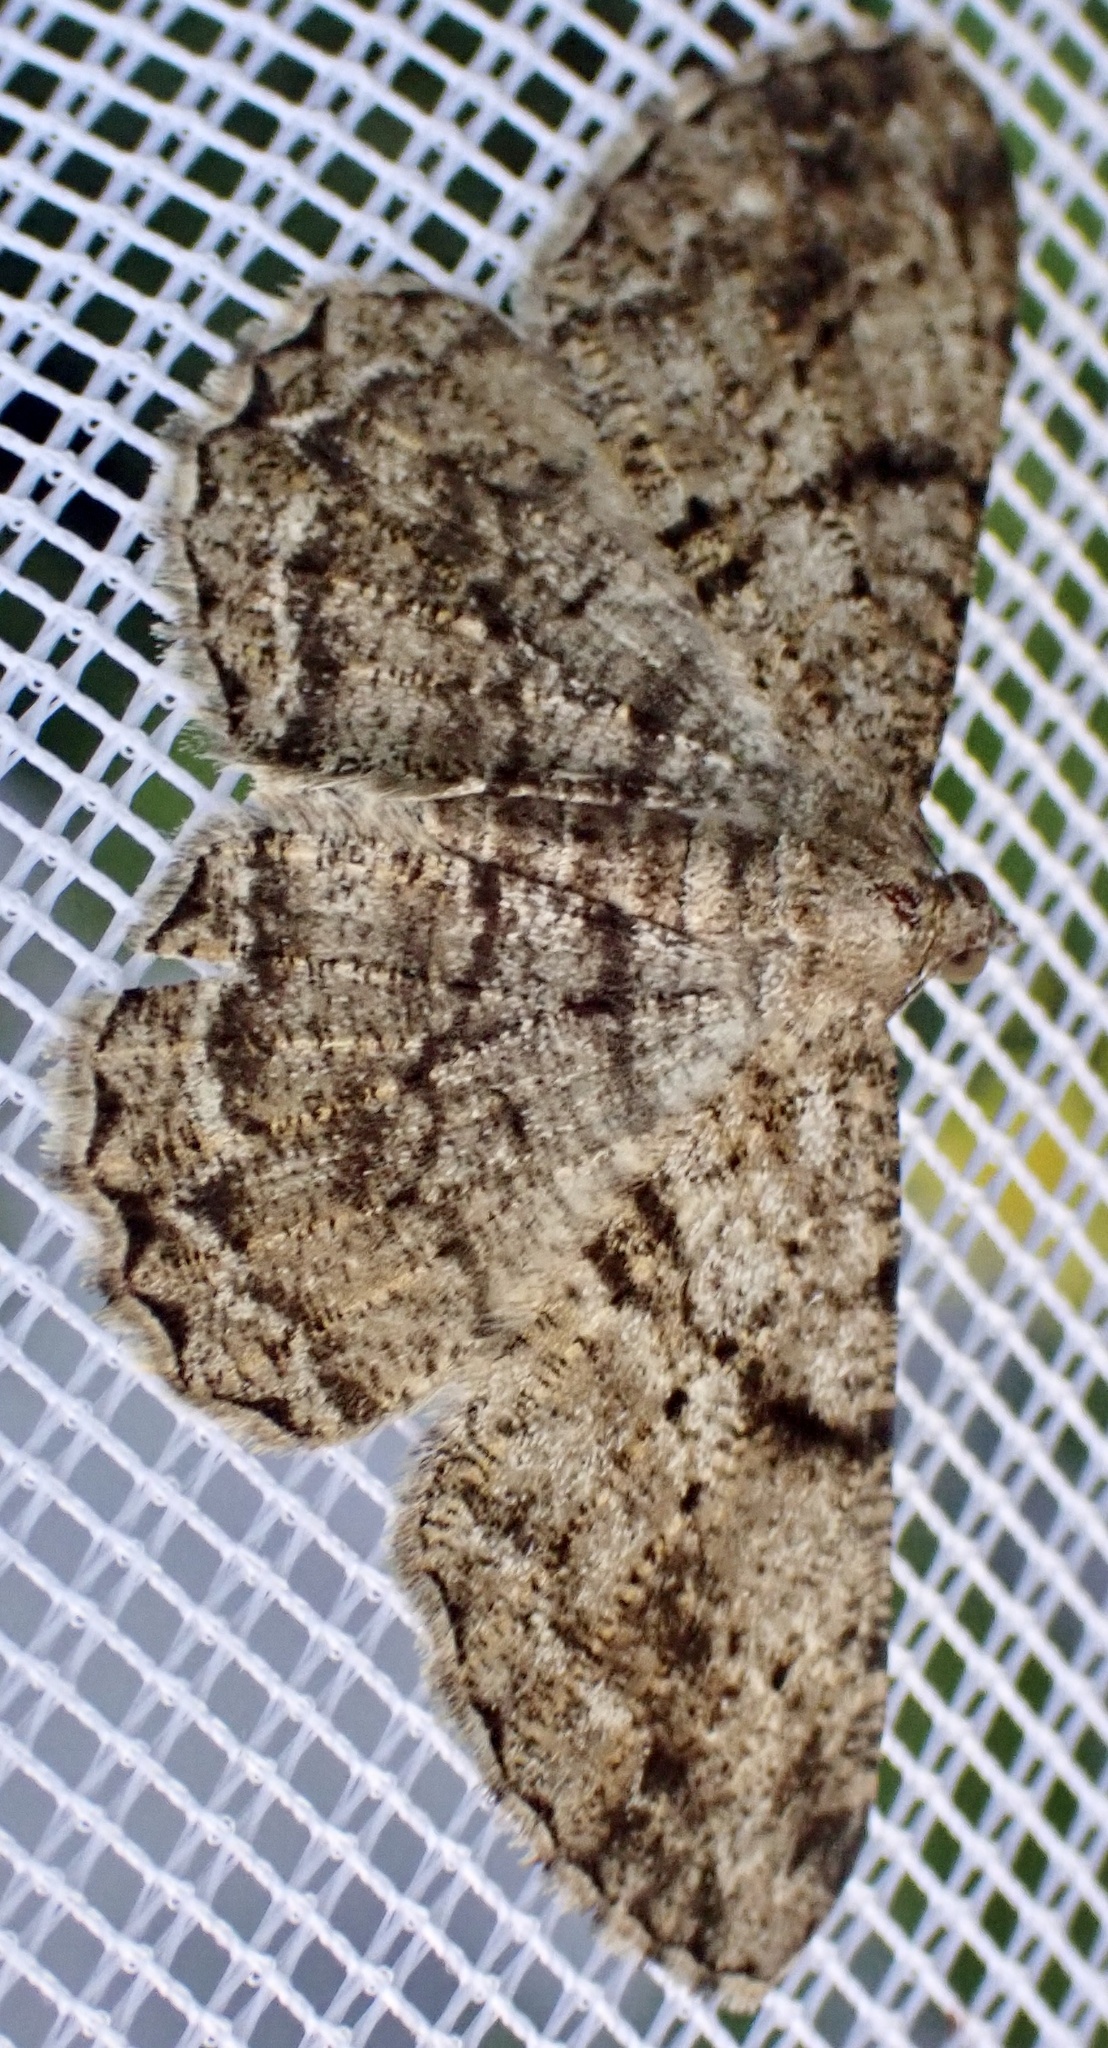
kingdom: Animalia
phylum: Arthropoda
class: Insecta
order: Lepidoptera
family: Geometridae
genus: Peribatodes
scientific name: Peribatodes rhomboidaria
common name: Willow beauty
